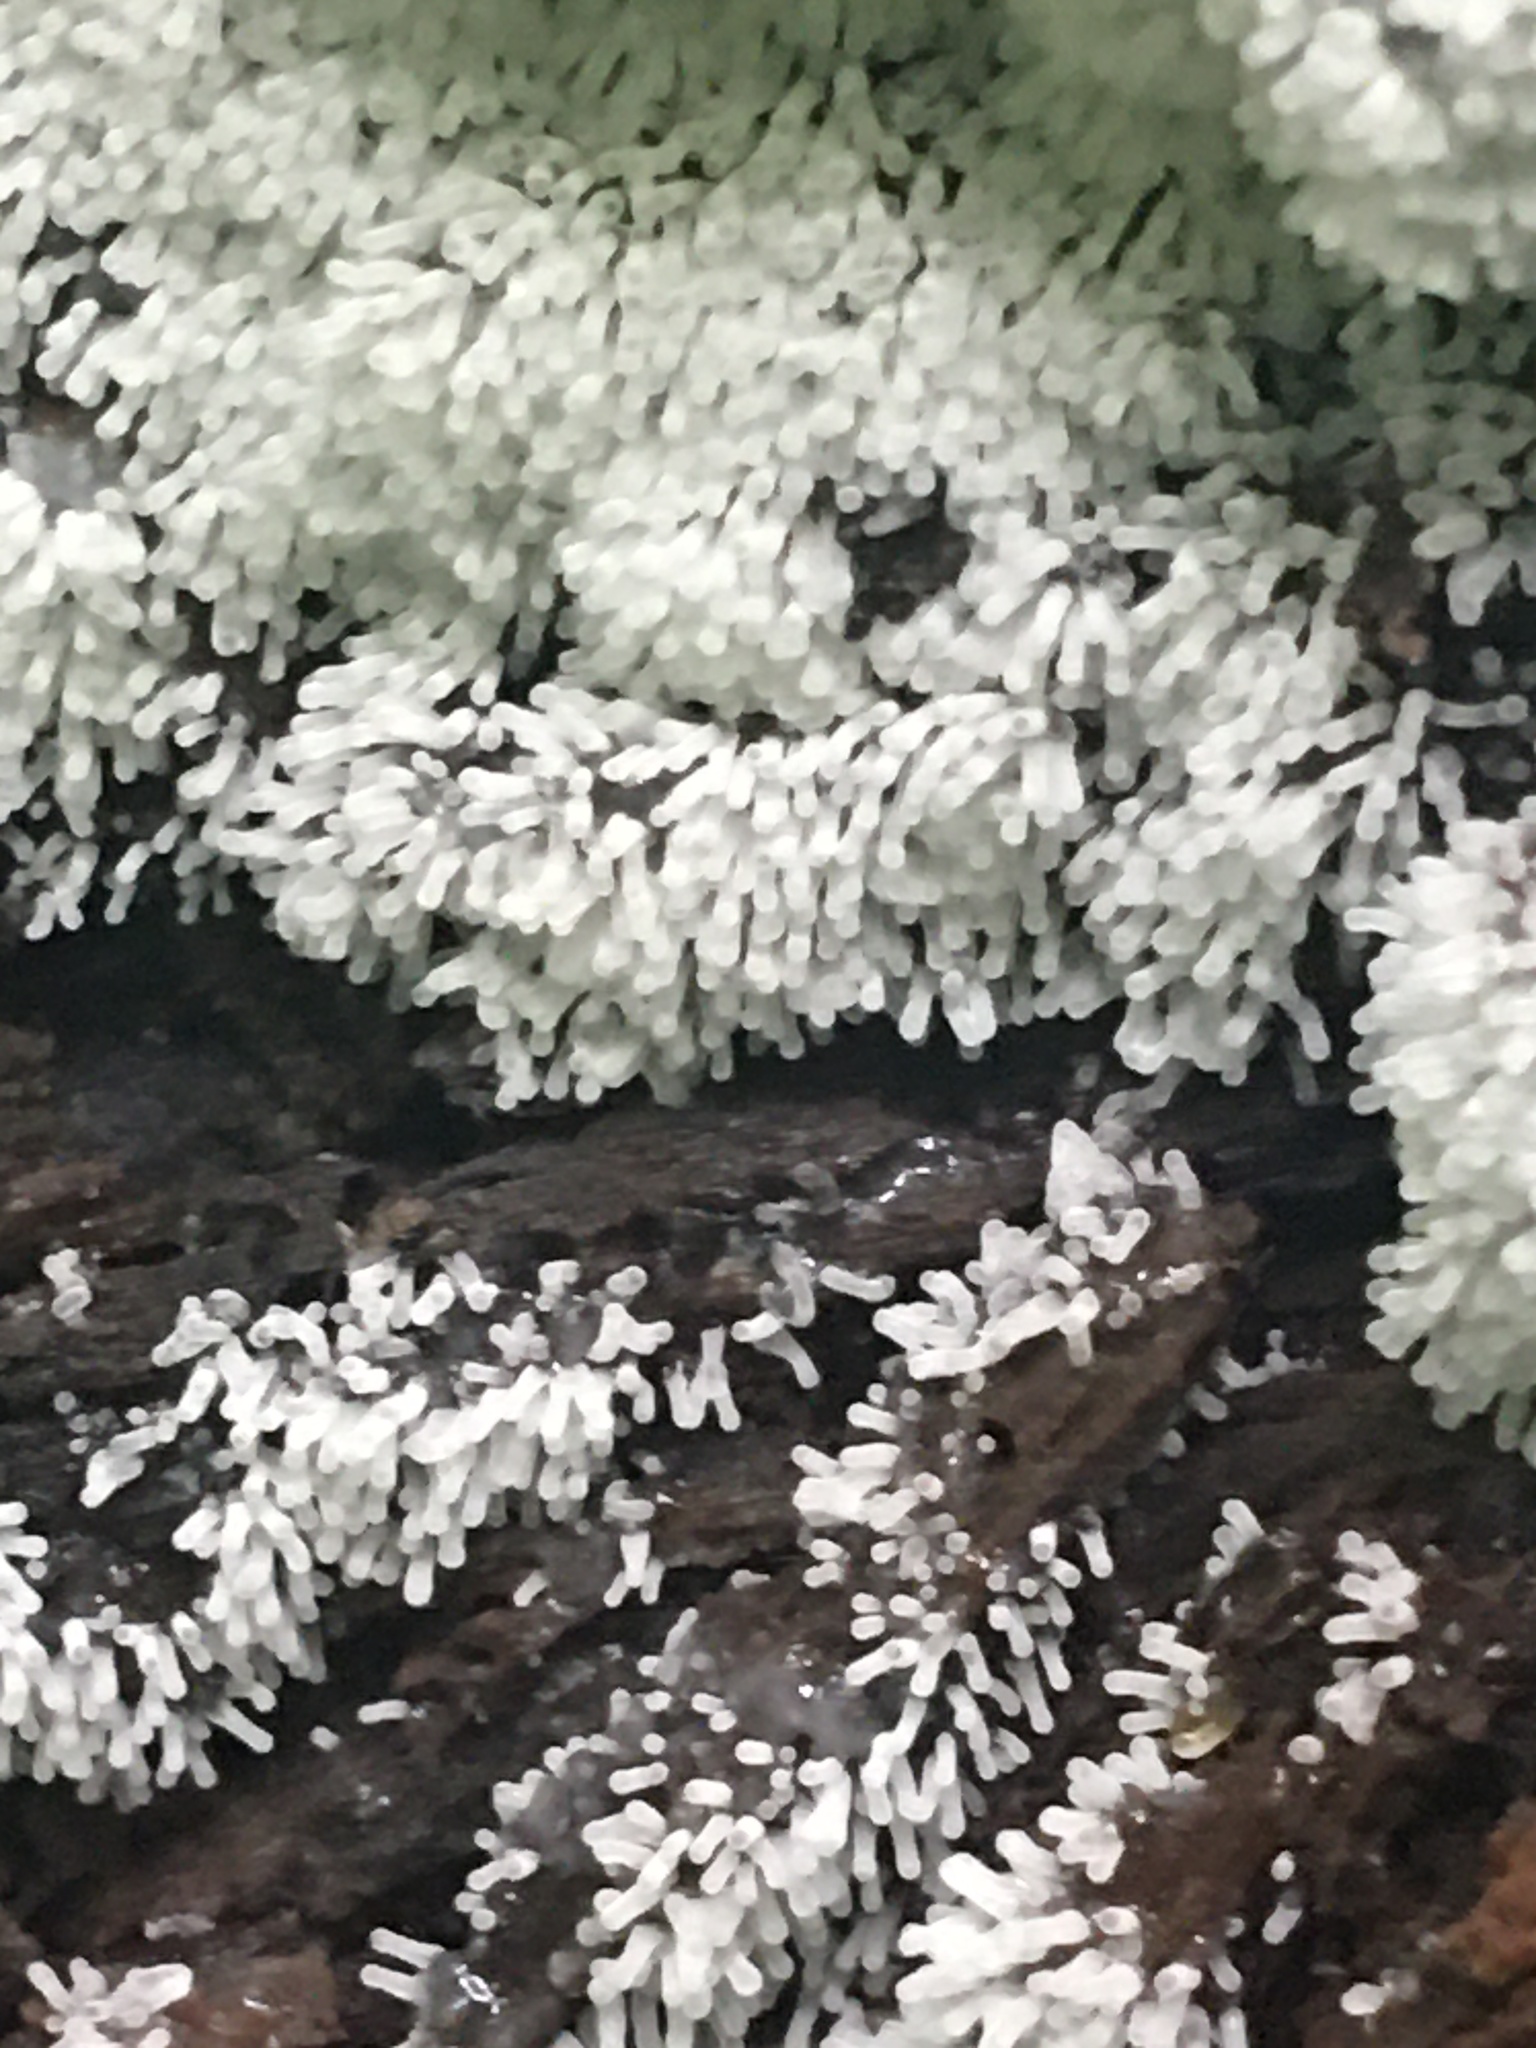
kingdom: Protozoa
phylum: Mycetozoa
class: Protosteliomycetes
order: Ceratiomyxales
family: Ceratiomyxaceae
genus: Ceratiomyxa
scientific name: Ceratiomyxa fruticulosa
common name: Honeycomb coral slime mold
